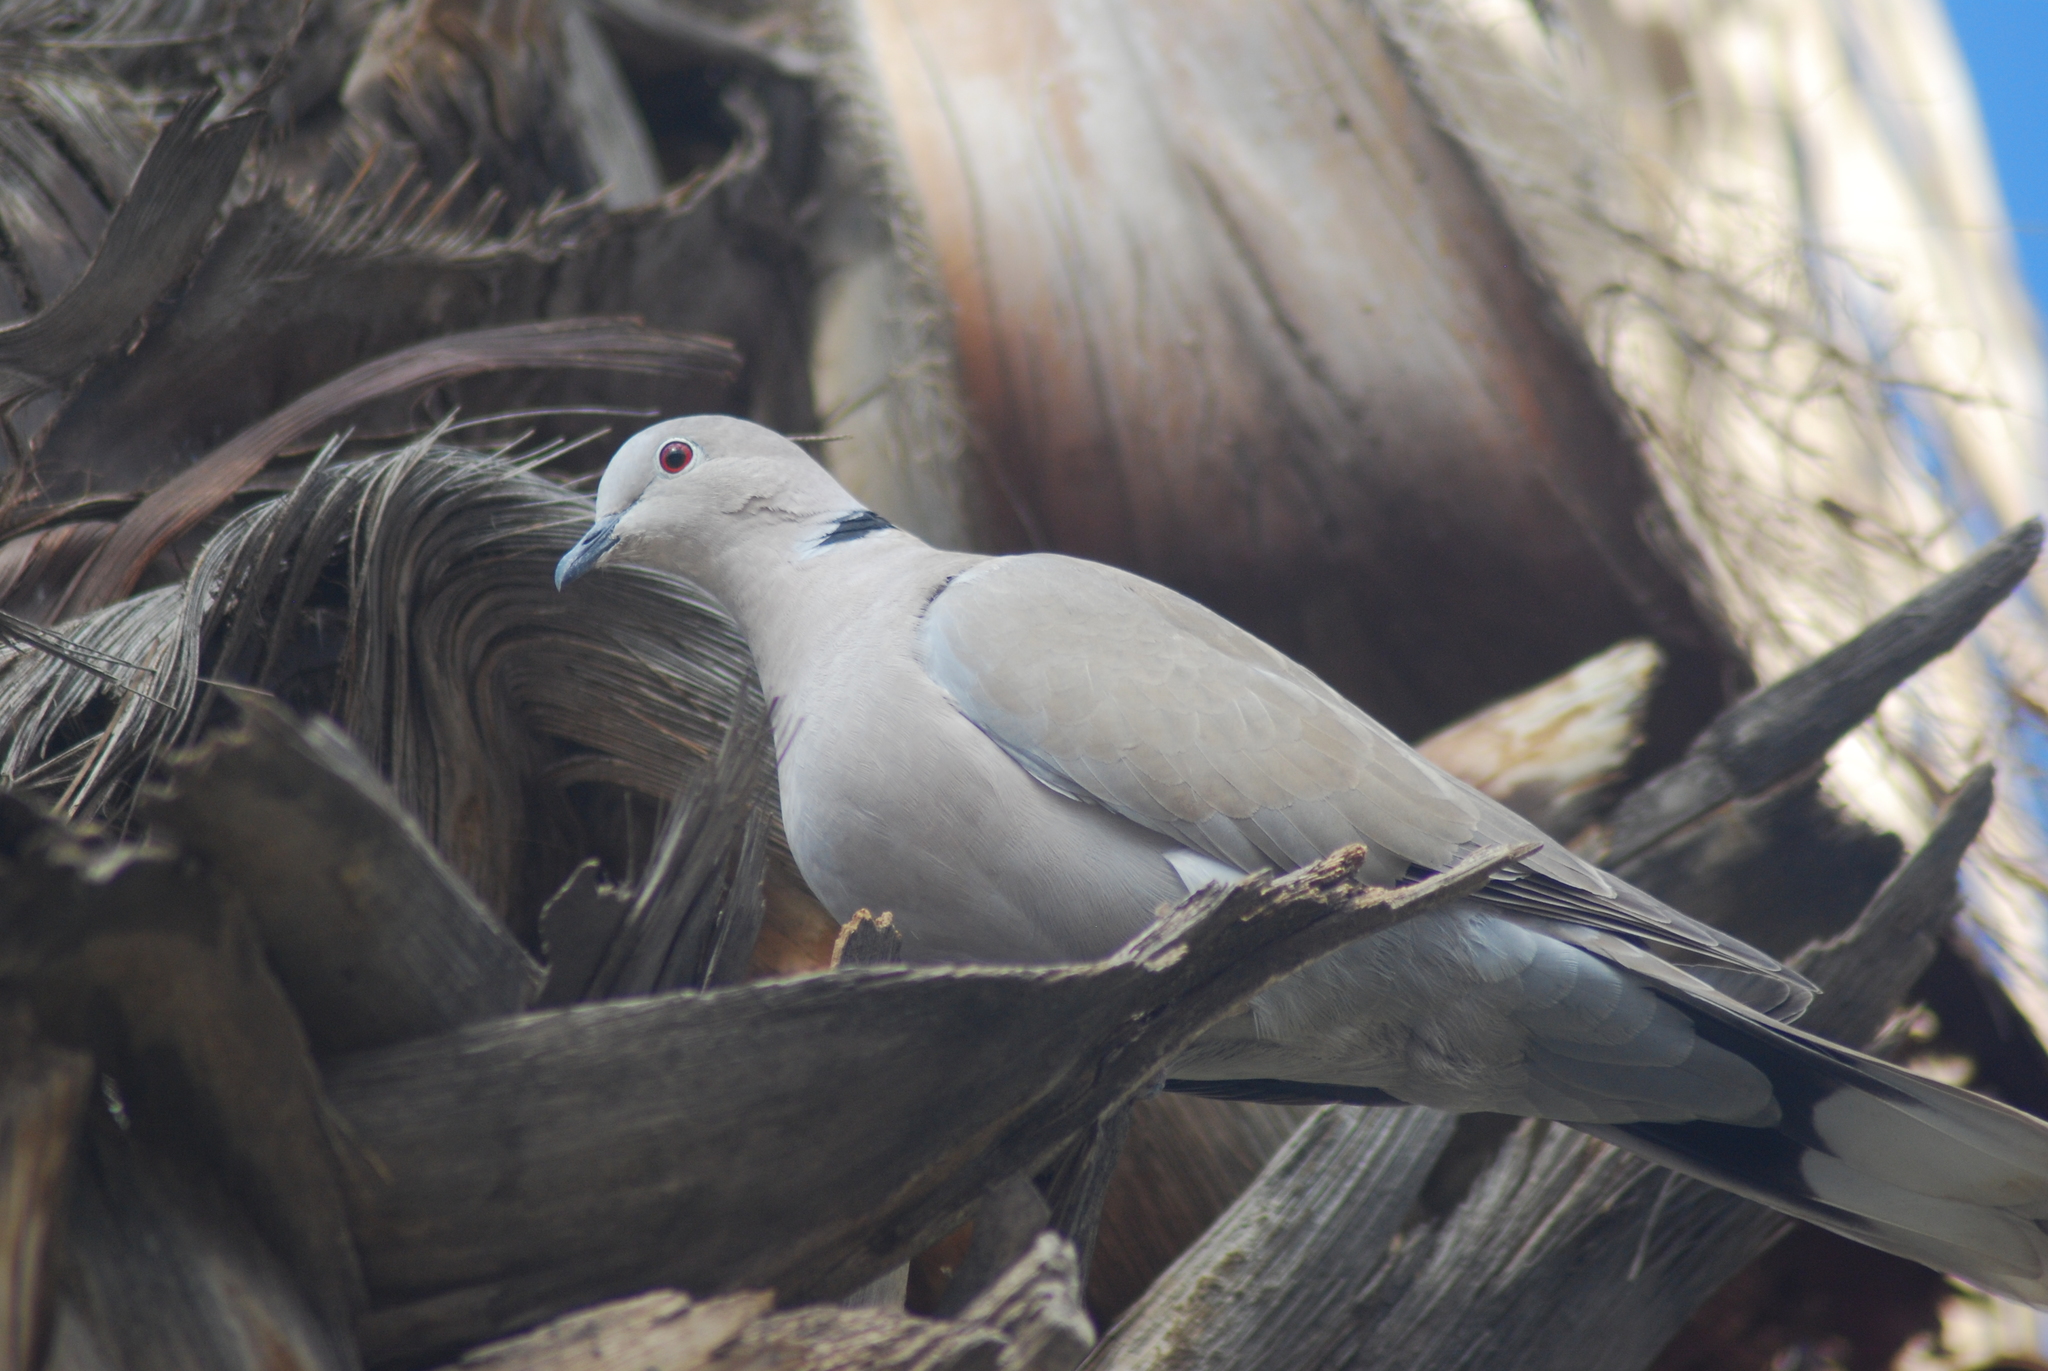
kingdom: Animalia
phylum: Chordata
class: Aves
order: Columbiformes
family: Columbidae
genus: Streptopelia
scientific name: Streptopelia decaocto
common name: Eurasian collared dove
